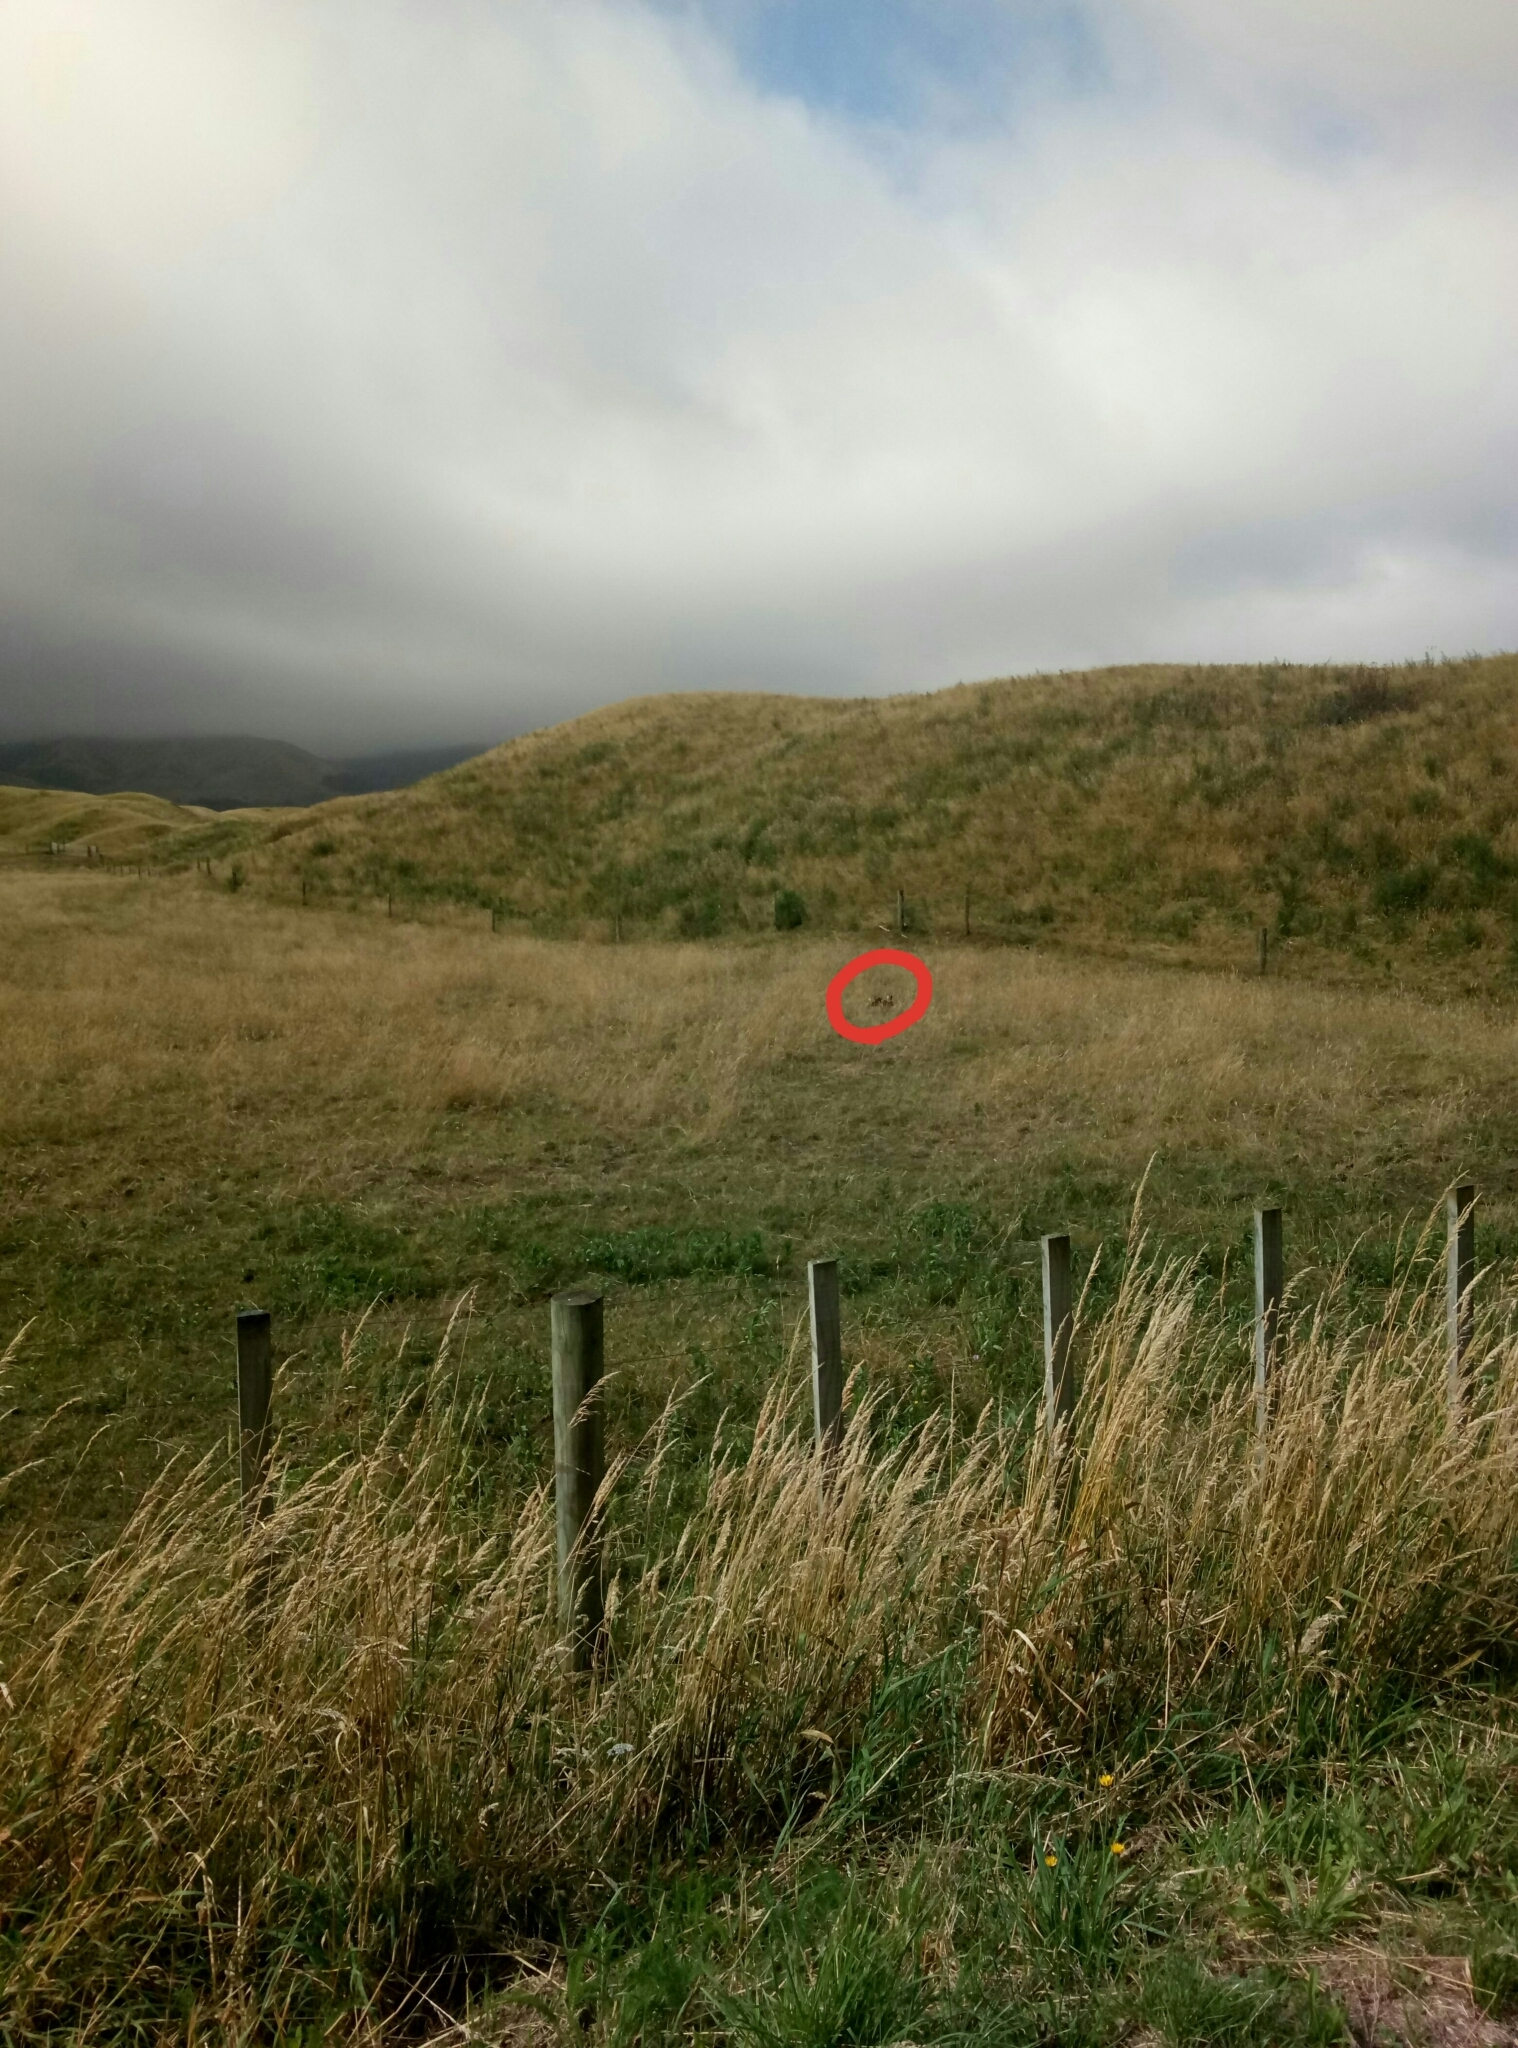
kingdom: Animalia
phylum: Chordata
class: Mammalia
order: Lagomorpha
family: Leporidae
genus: Lepus
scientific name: Lepus europaeus
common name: European hare
